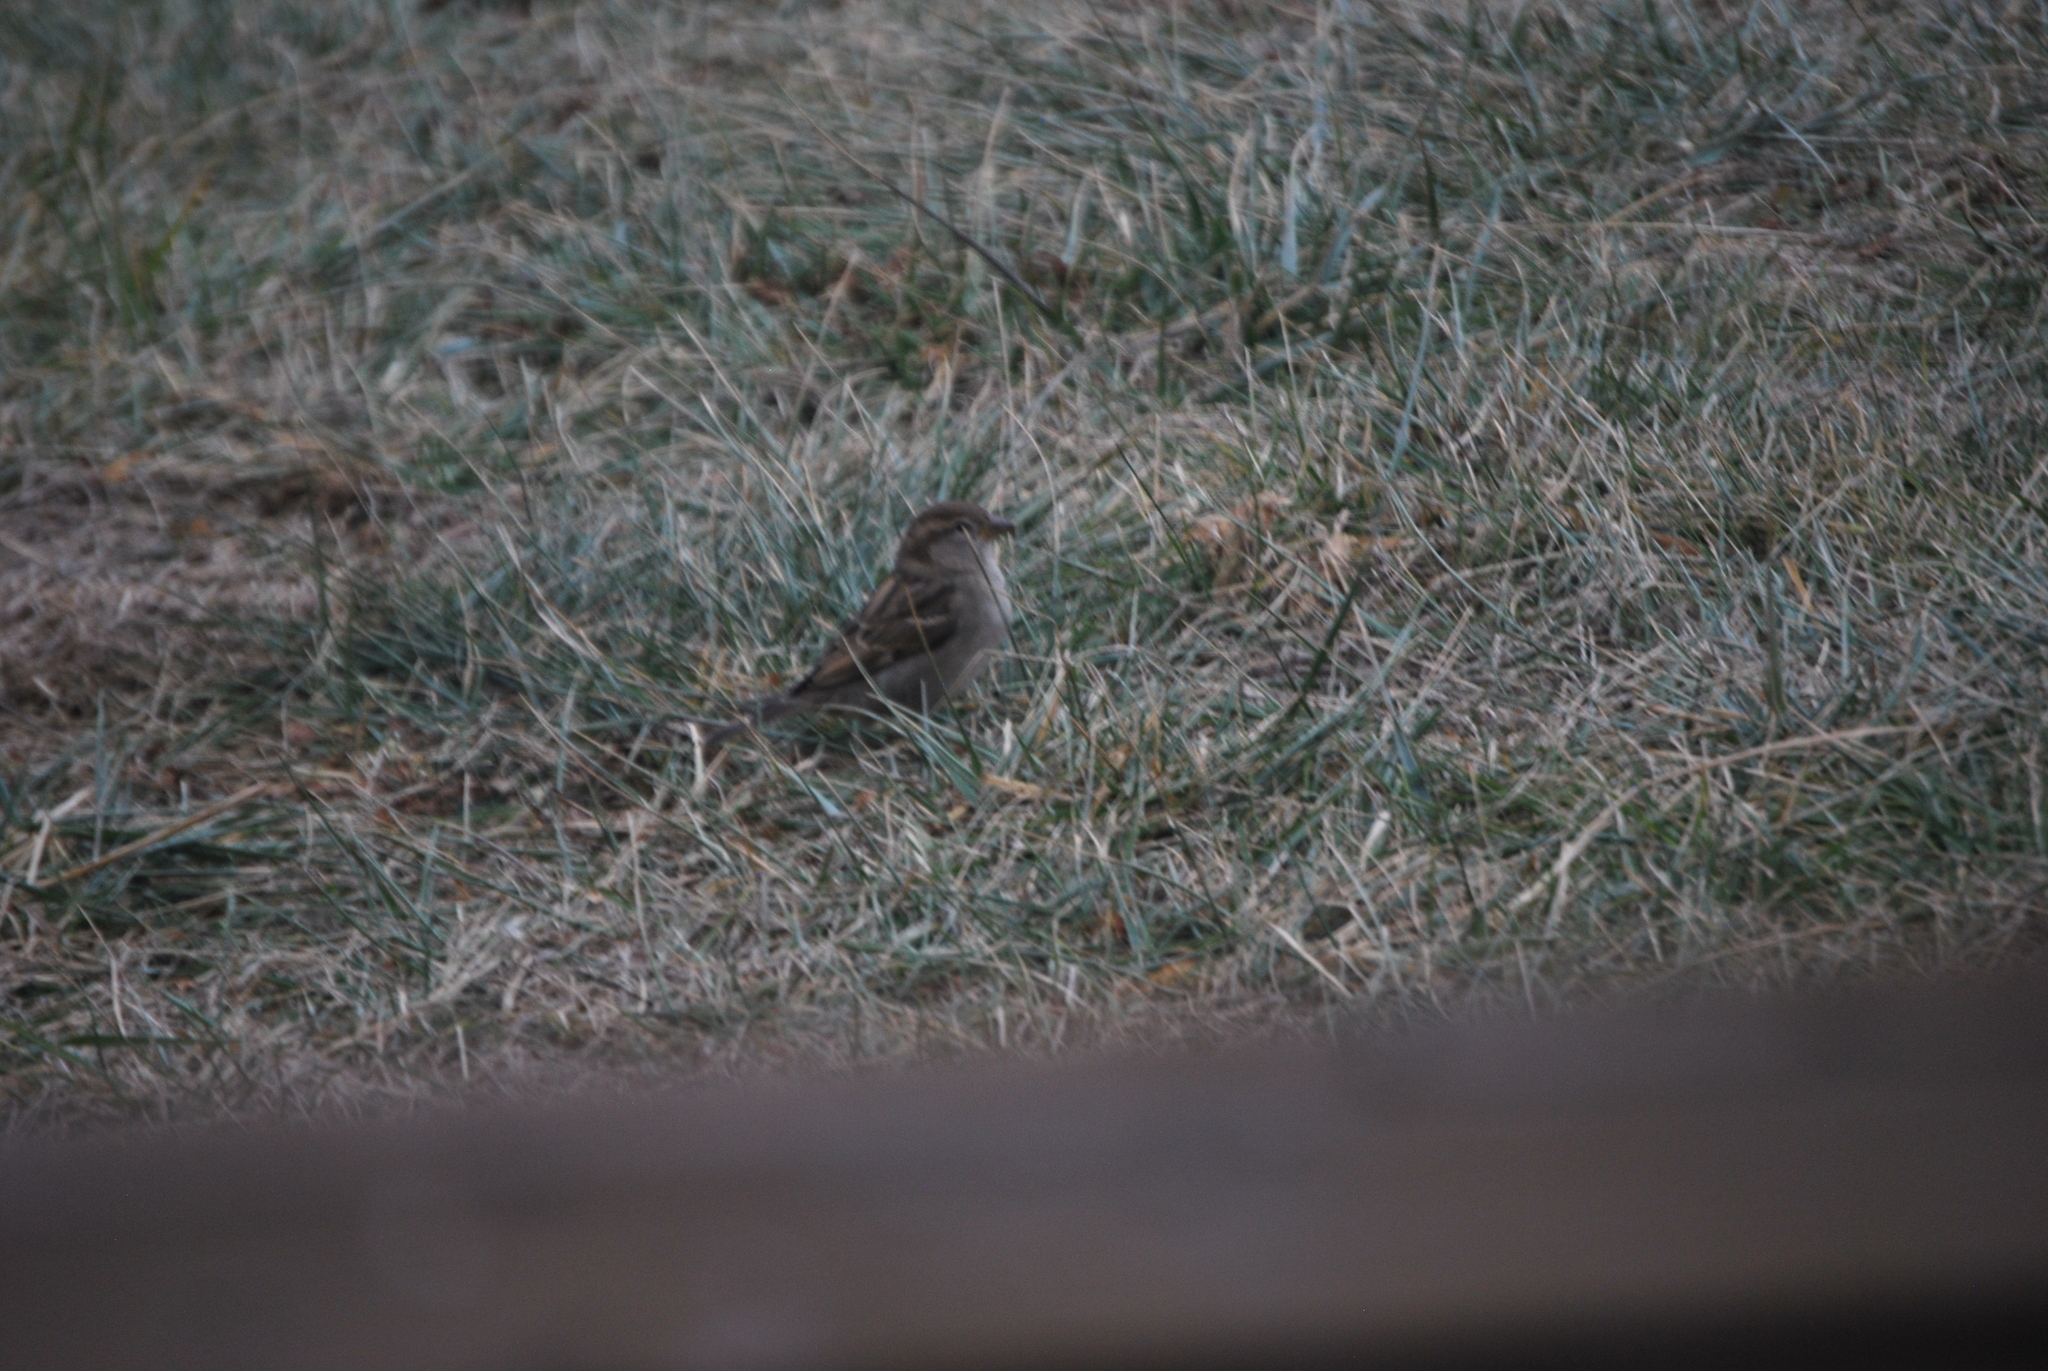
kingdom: Animalia
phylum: Chordata
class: Aves
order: Passeriformes
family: Passeridae
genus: Passer
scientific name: Passer domesticus
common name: House sparrow
